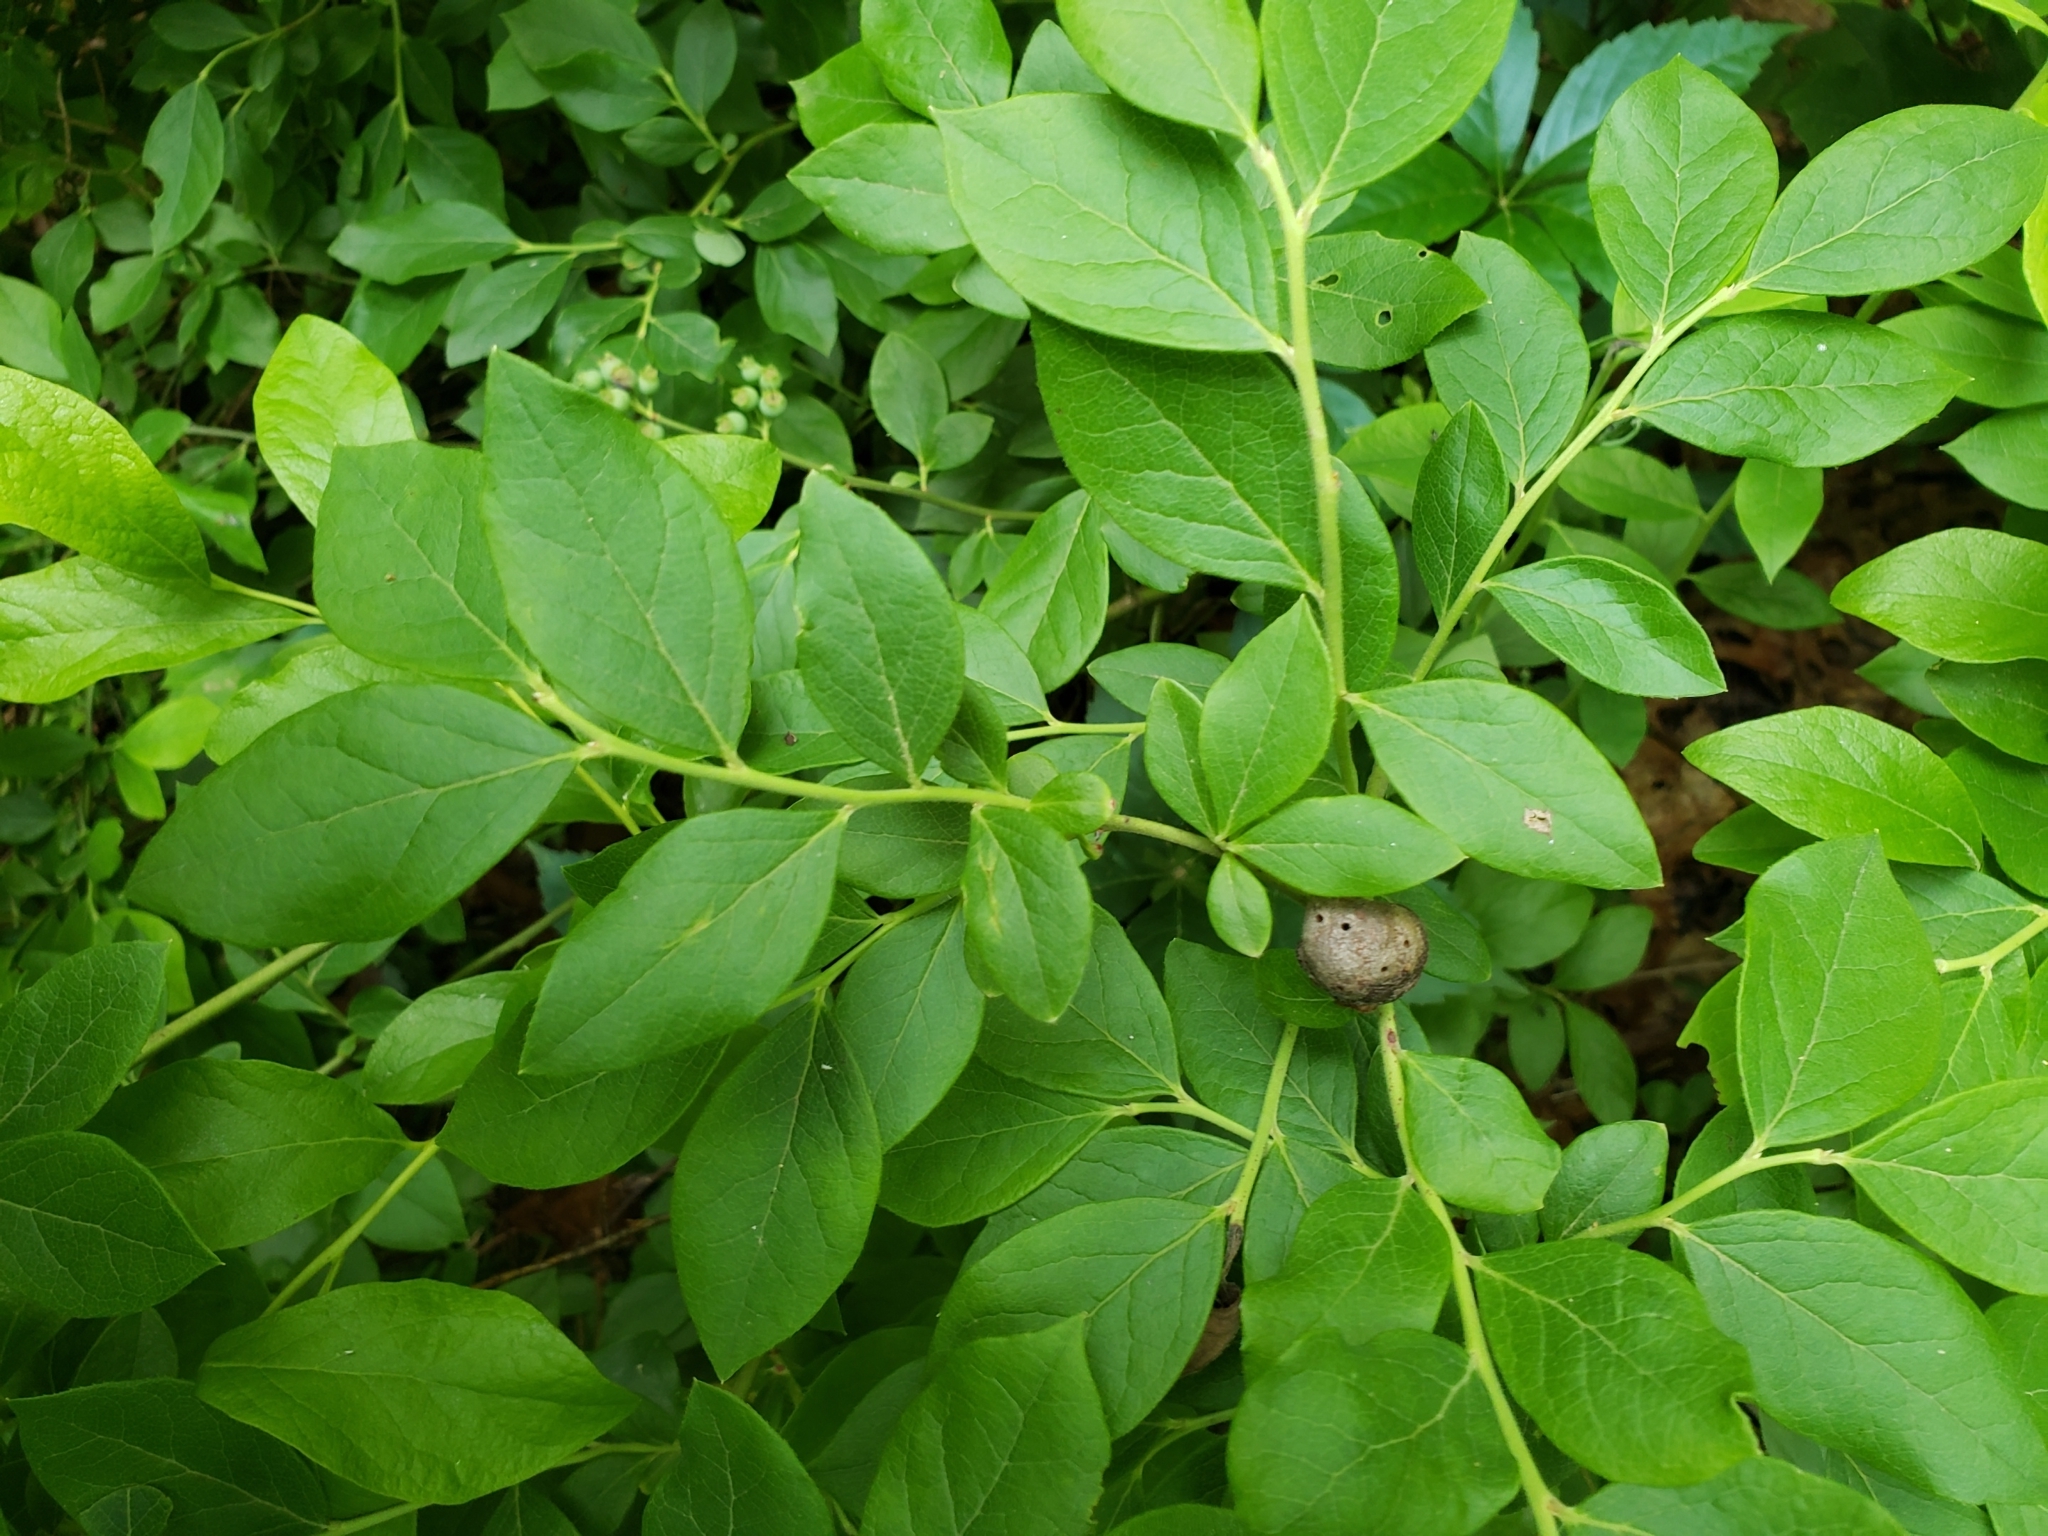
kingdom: Animalia
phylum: Arthropoda
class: Insecta
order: Hymenoptera
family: Pteromalidae
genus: Hemadas
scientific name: Hemadas nubilipennis
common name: Blueberry stem gall wasp
